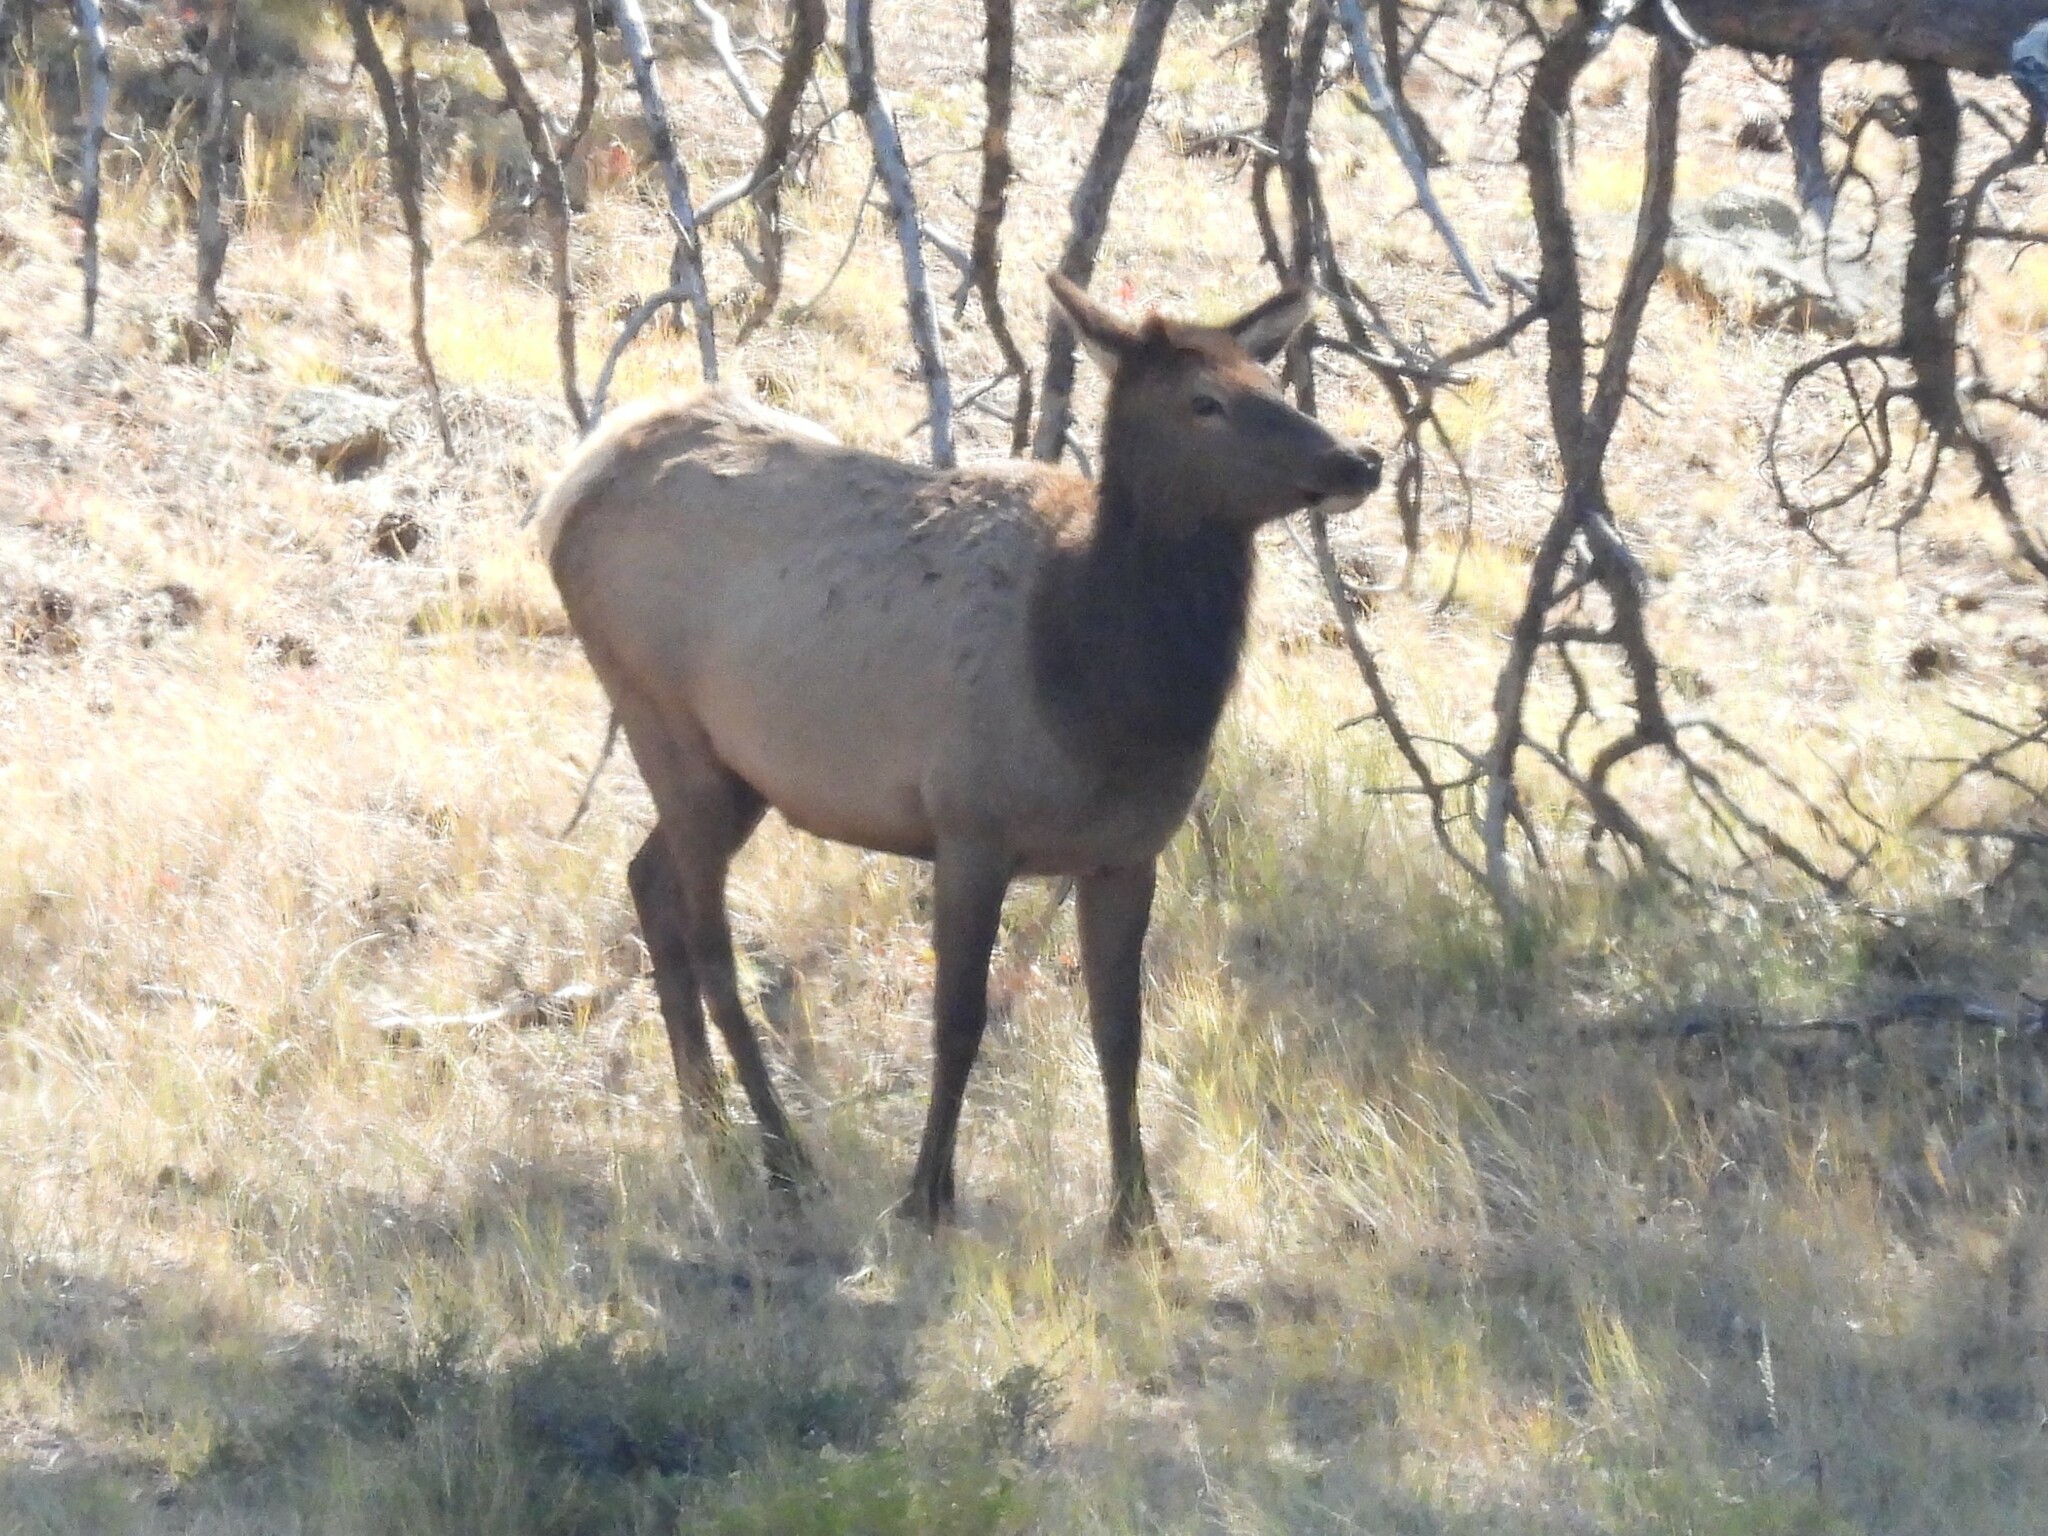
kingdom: Animalia
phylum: Chordata
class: Mammalia
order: Artiodactyla
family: Cervidae
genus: Cervus
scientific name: Cervus elaphus
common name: Red deer
